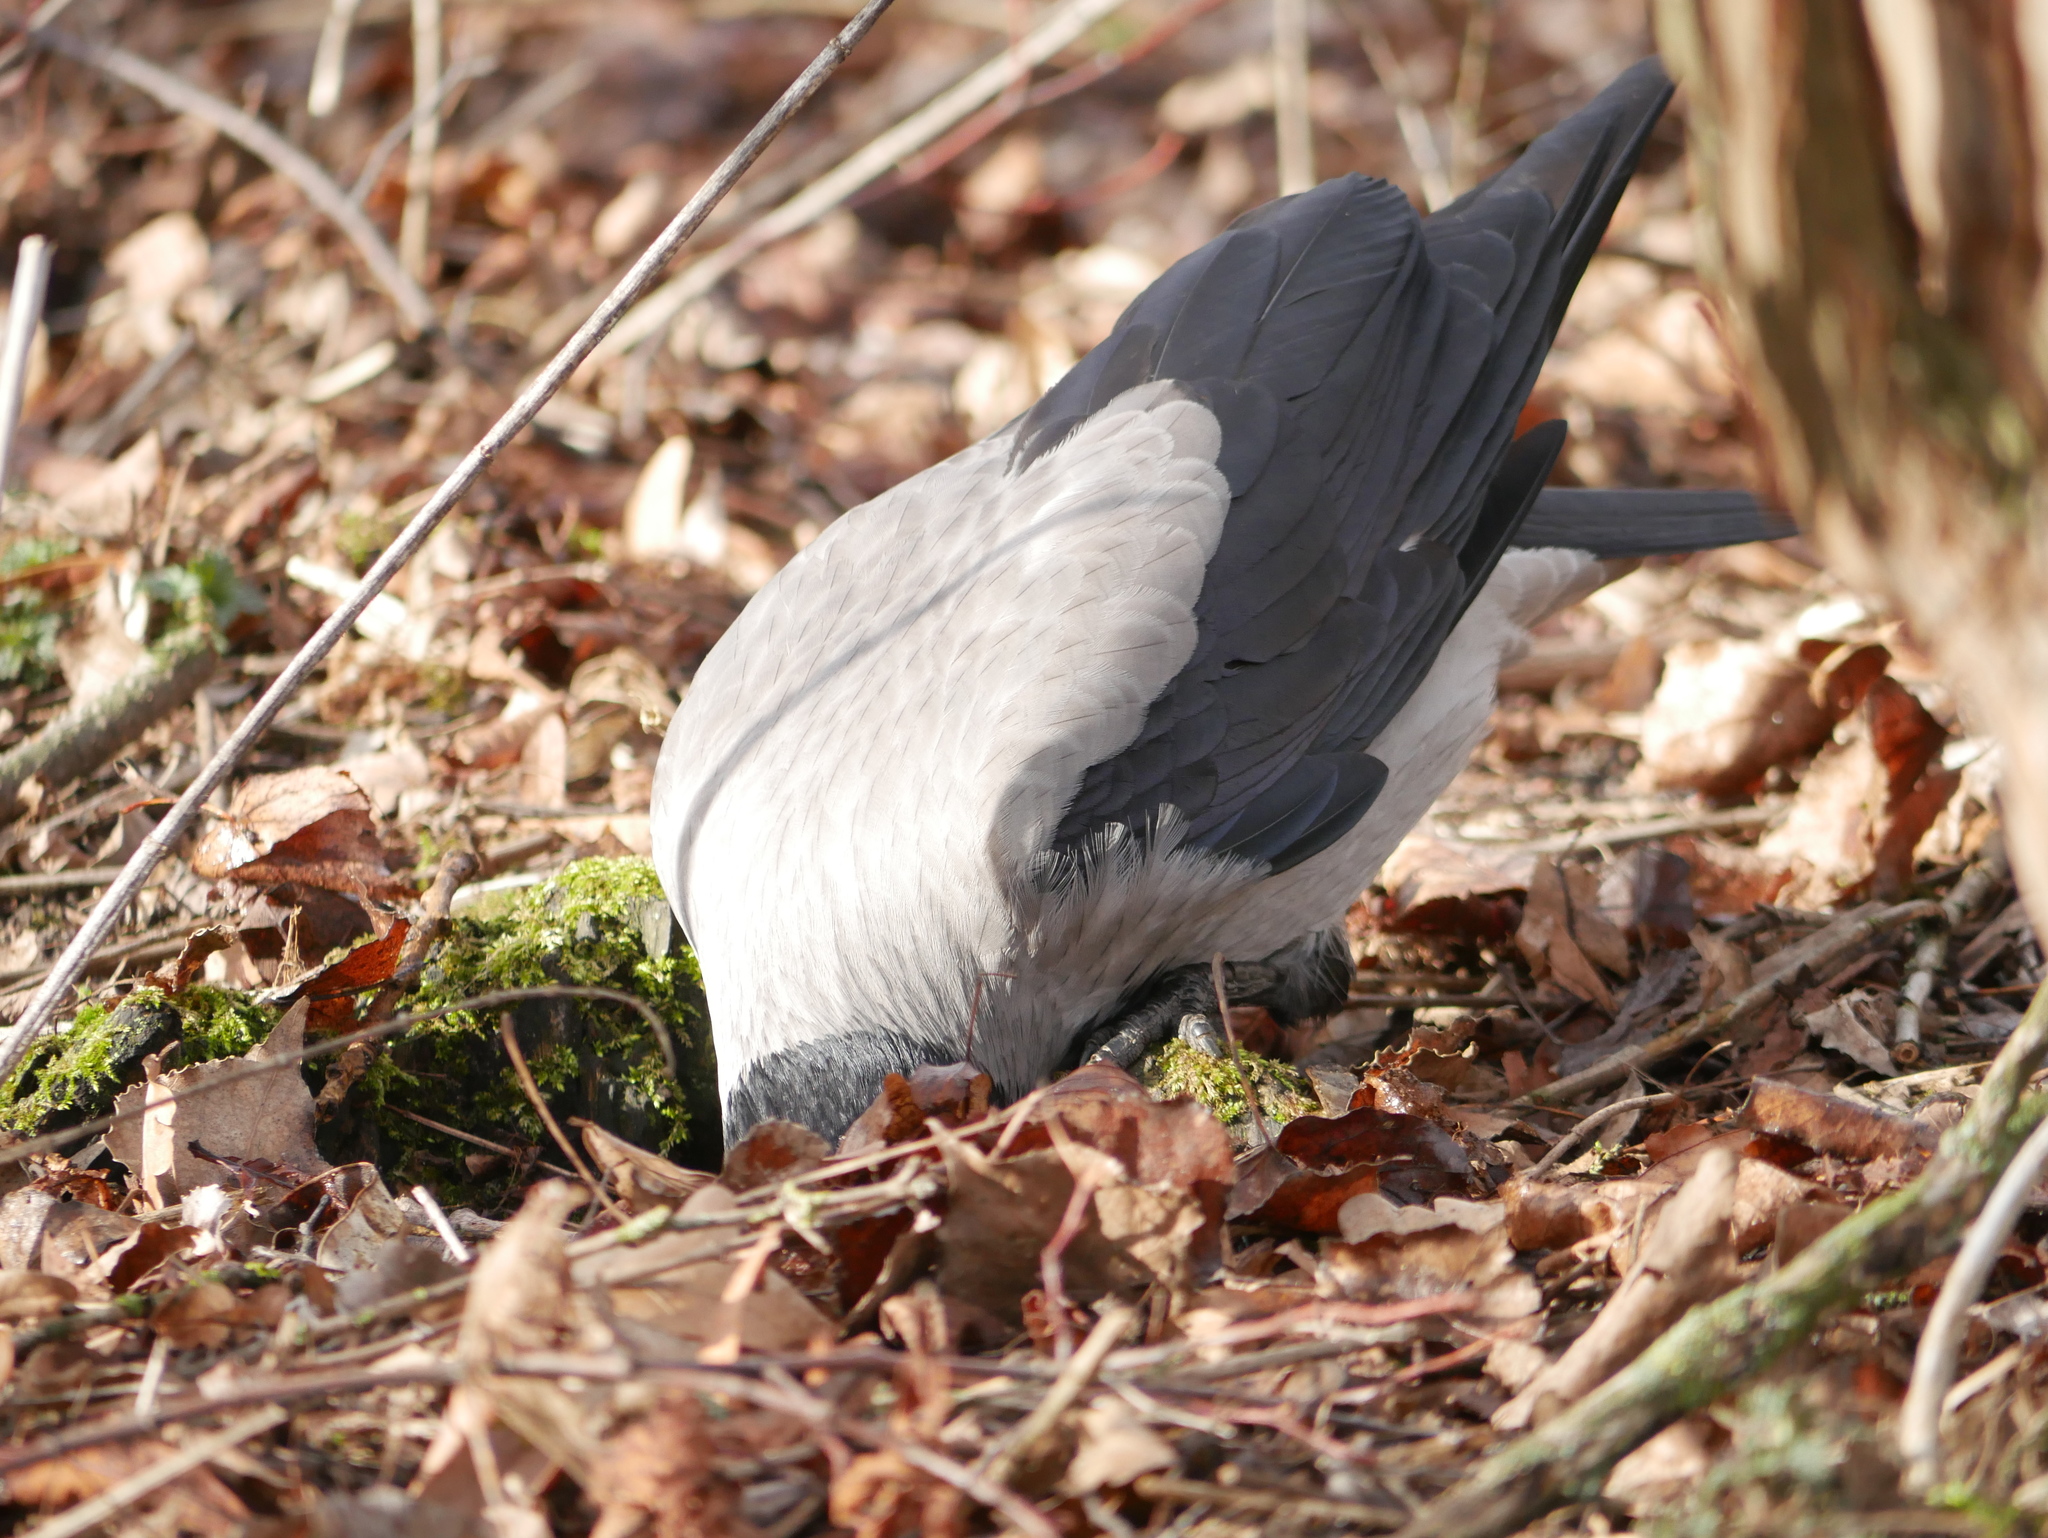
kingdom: Animalia
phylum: Chordata
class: Aves
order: Passeriformes
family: Corvidae
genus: Corvus
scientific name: Corvus cornix
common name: Hooded crow
